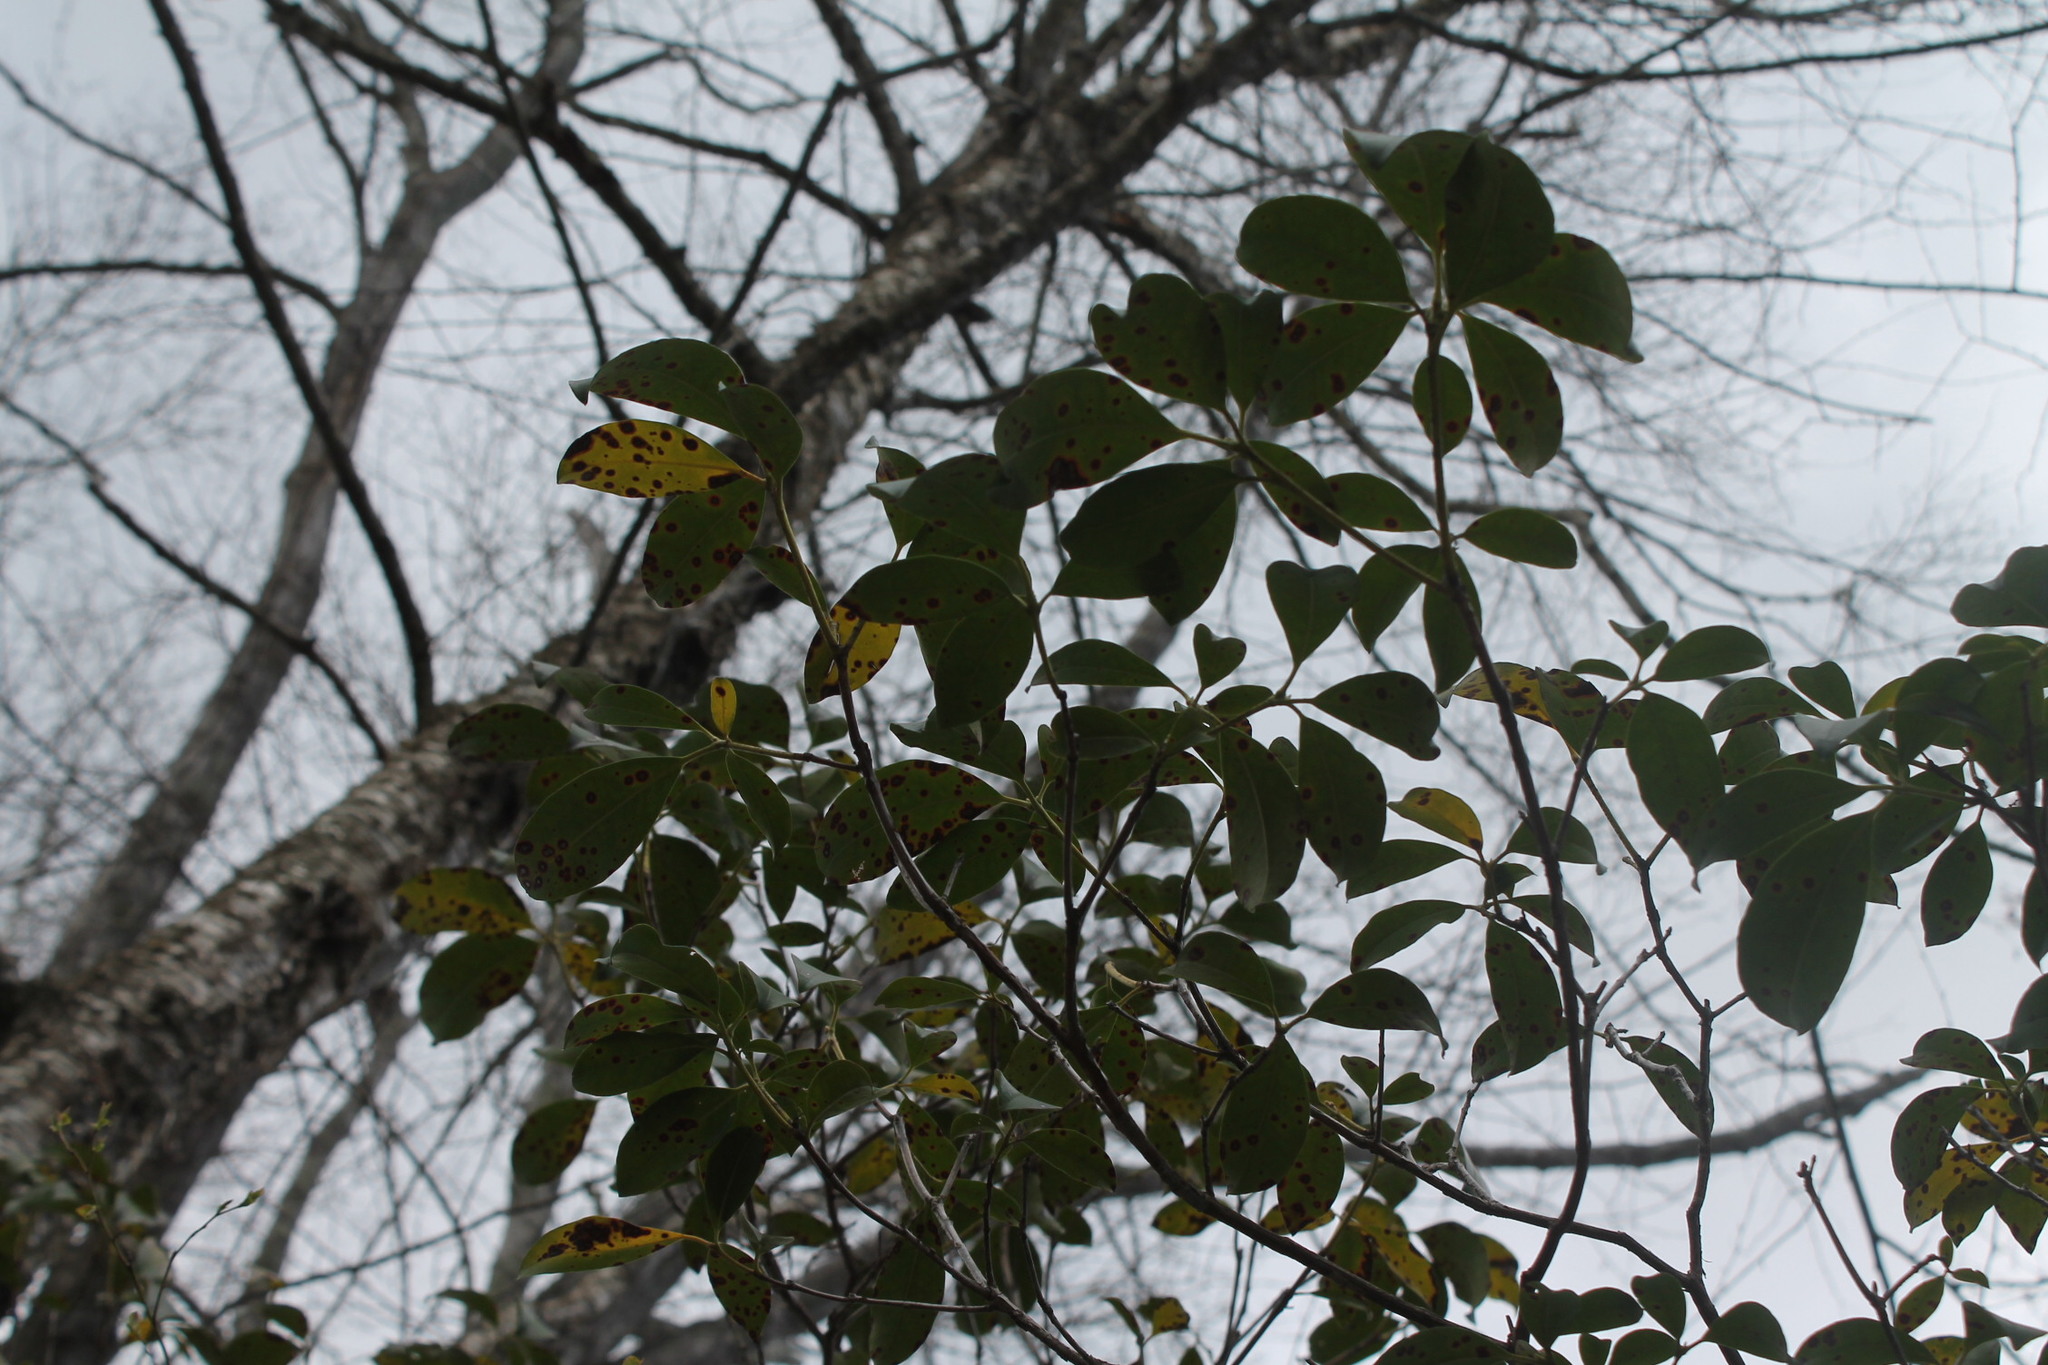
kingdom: Fungi
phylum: Ascomycota
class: Dothideomycetes
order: Mycosphaerellales
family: Mycosphaerellaceae
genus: Mycosphaerella
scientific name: Mycosphaerella colorata
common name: Mountain laurel leaf spot
